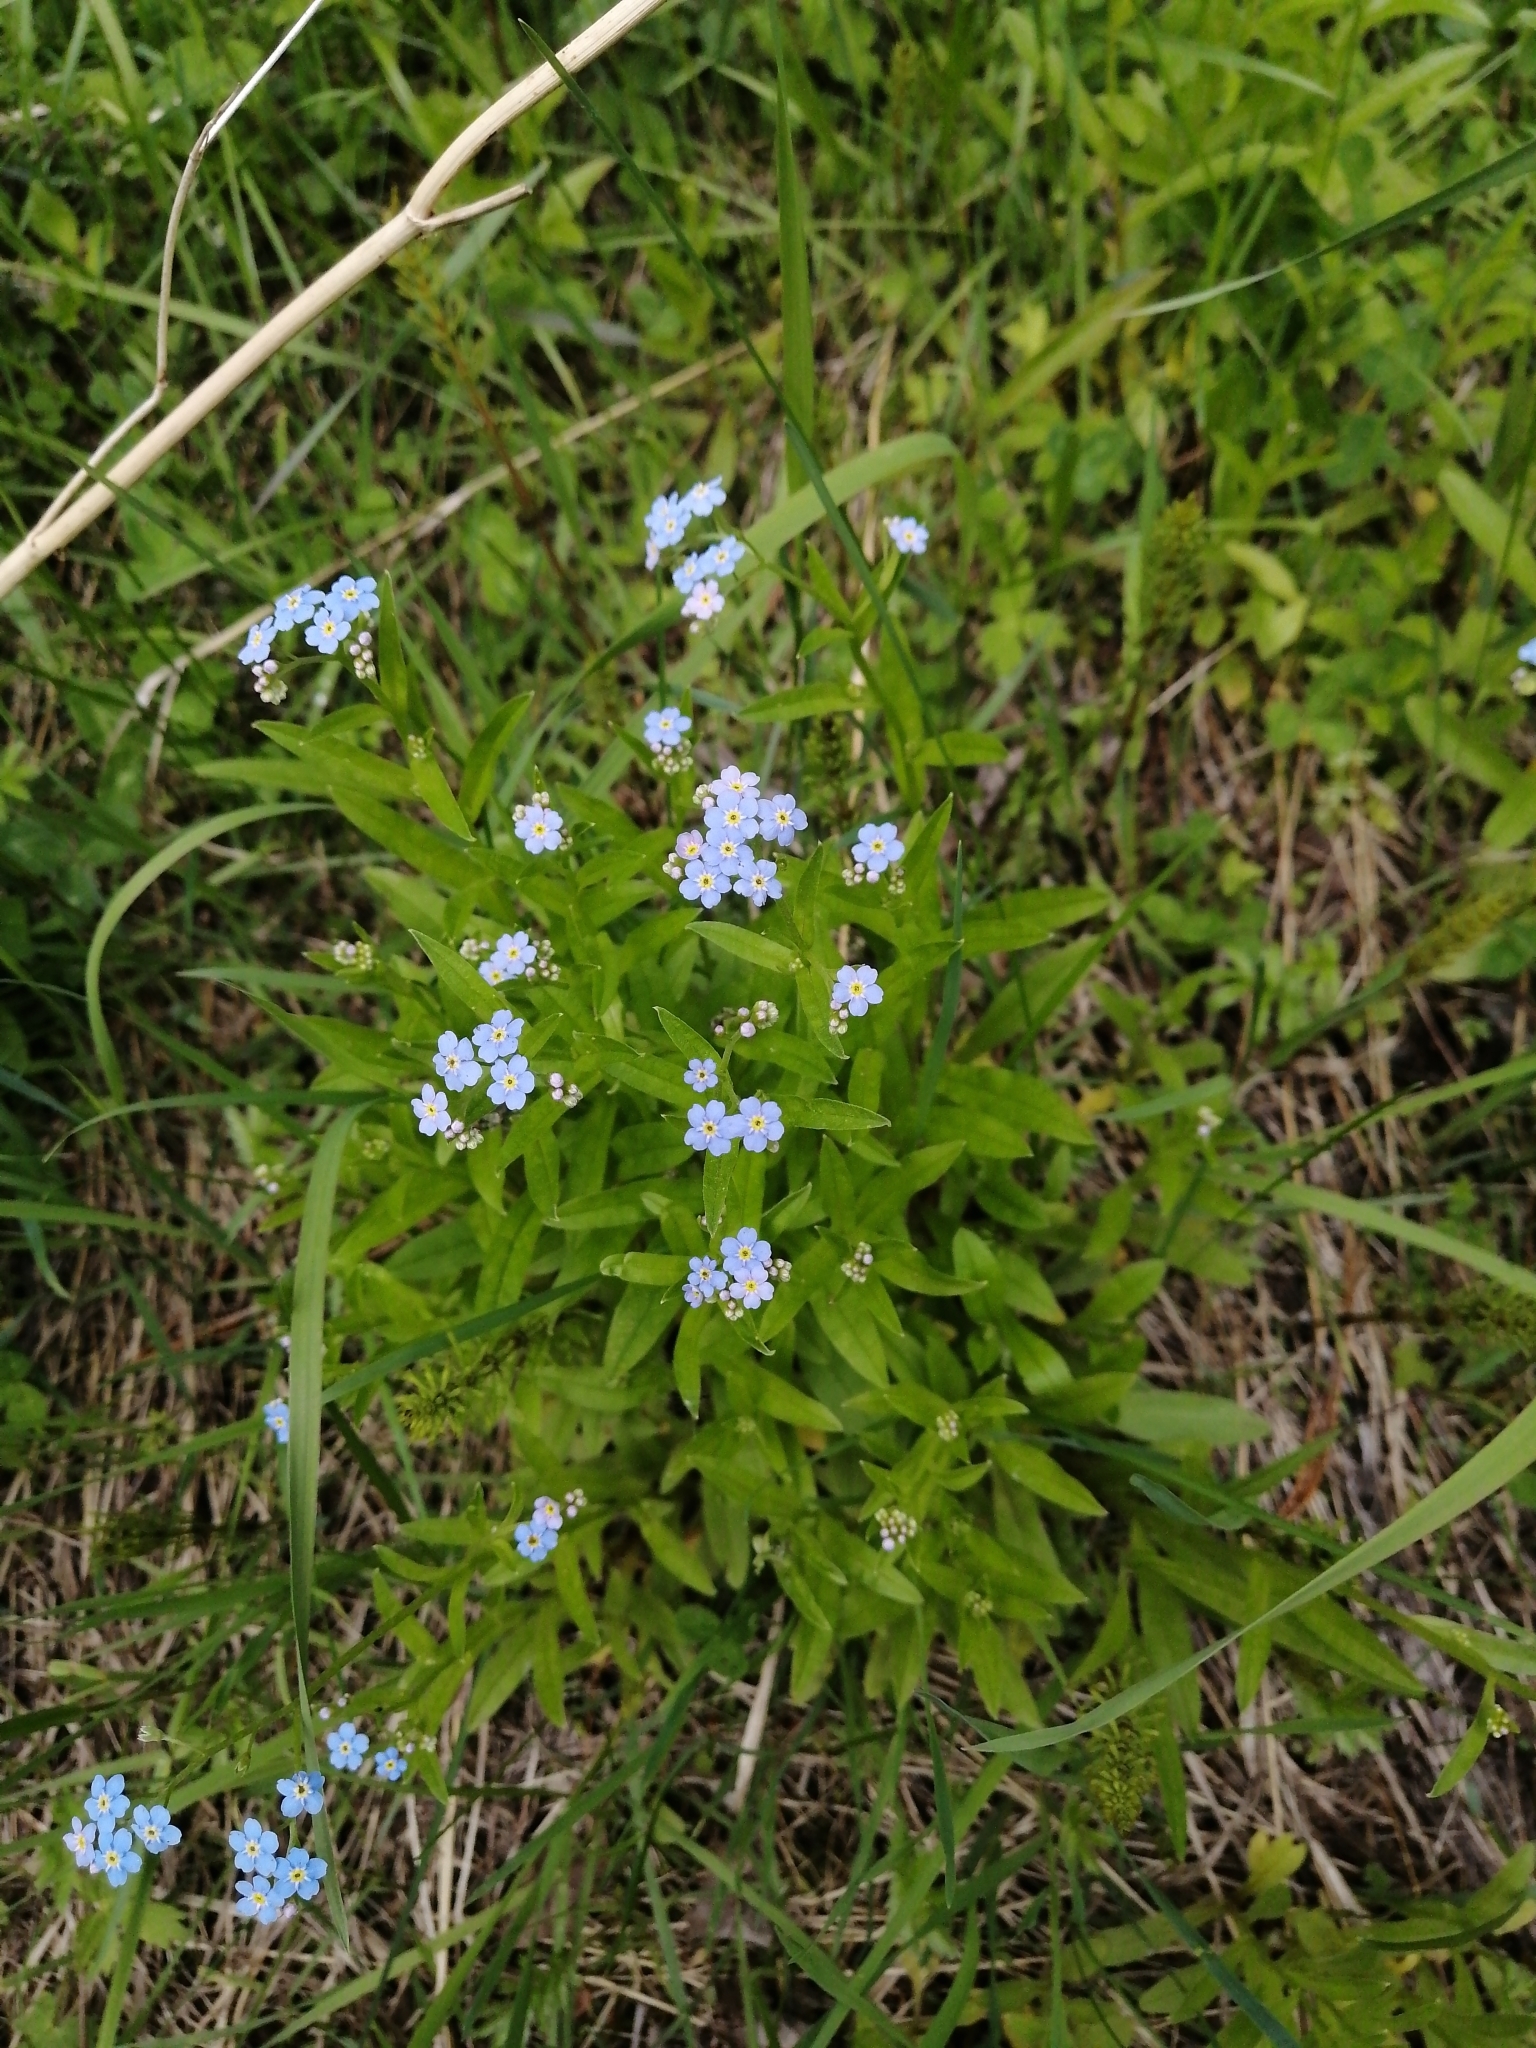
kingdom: Plantae
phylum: Tracheophyta
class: Magnoliopsida
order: Boraginales
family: Boraginaceae
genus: Myosotis
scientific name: Myosotis scorpioides
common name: Water forget-me-not
